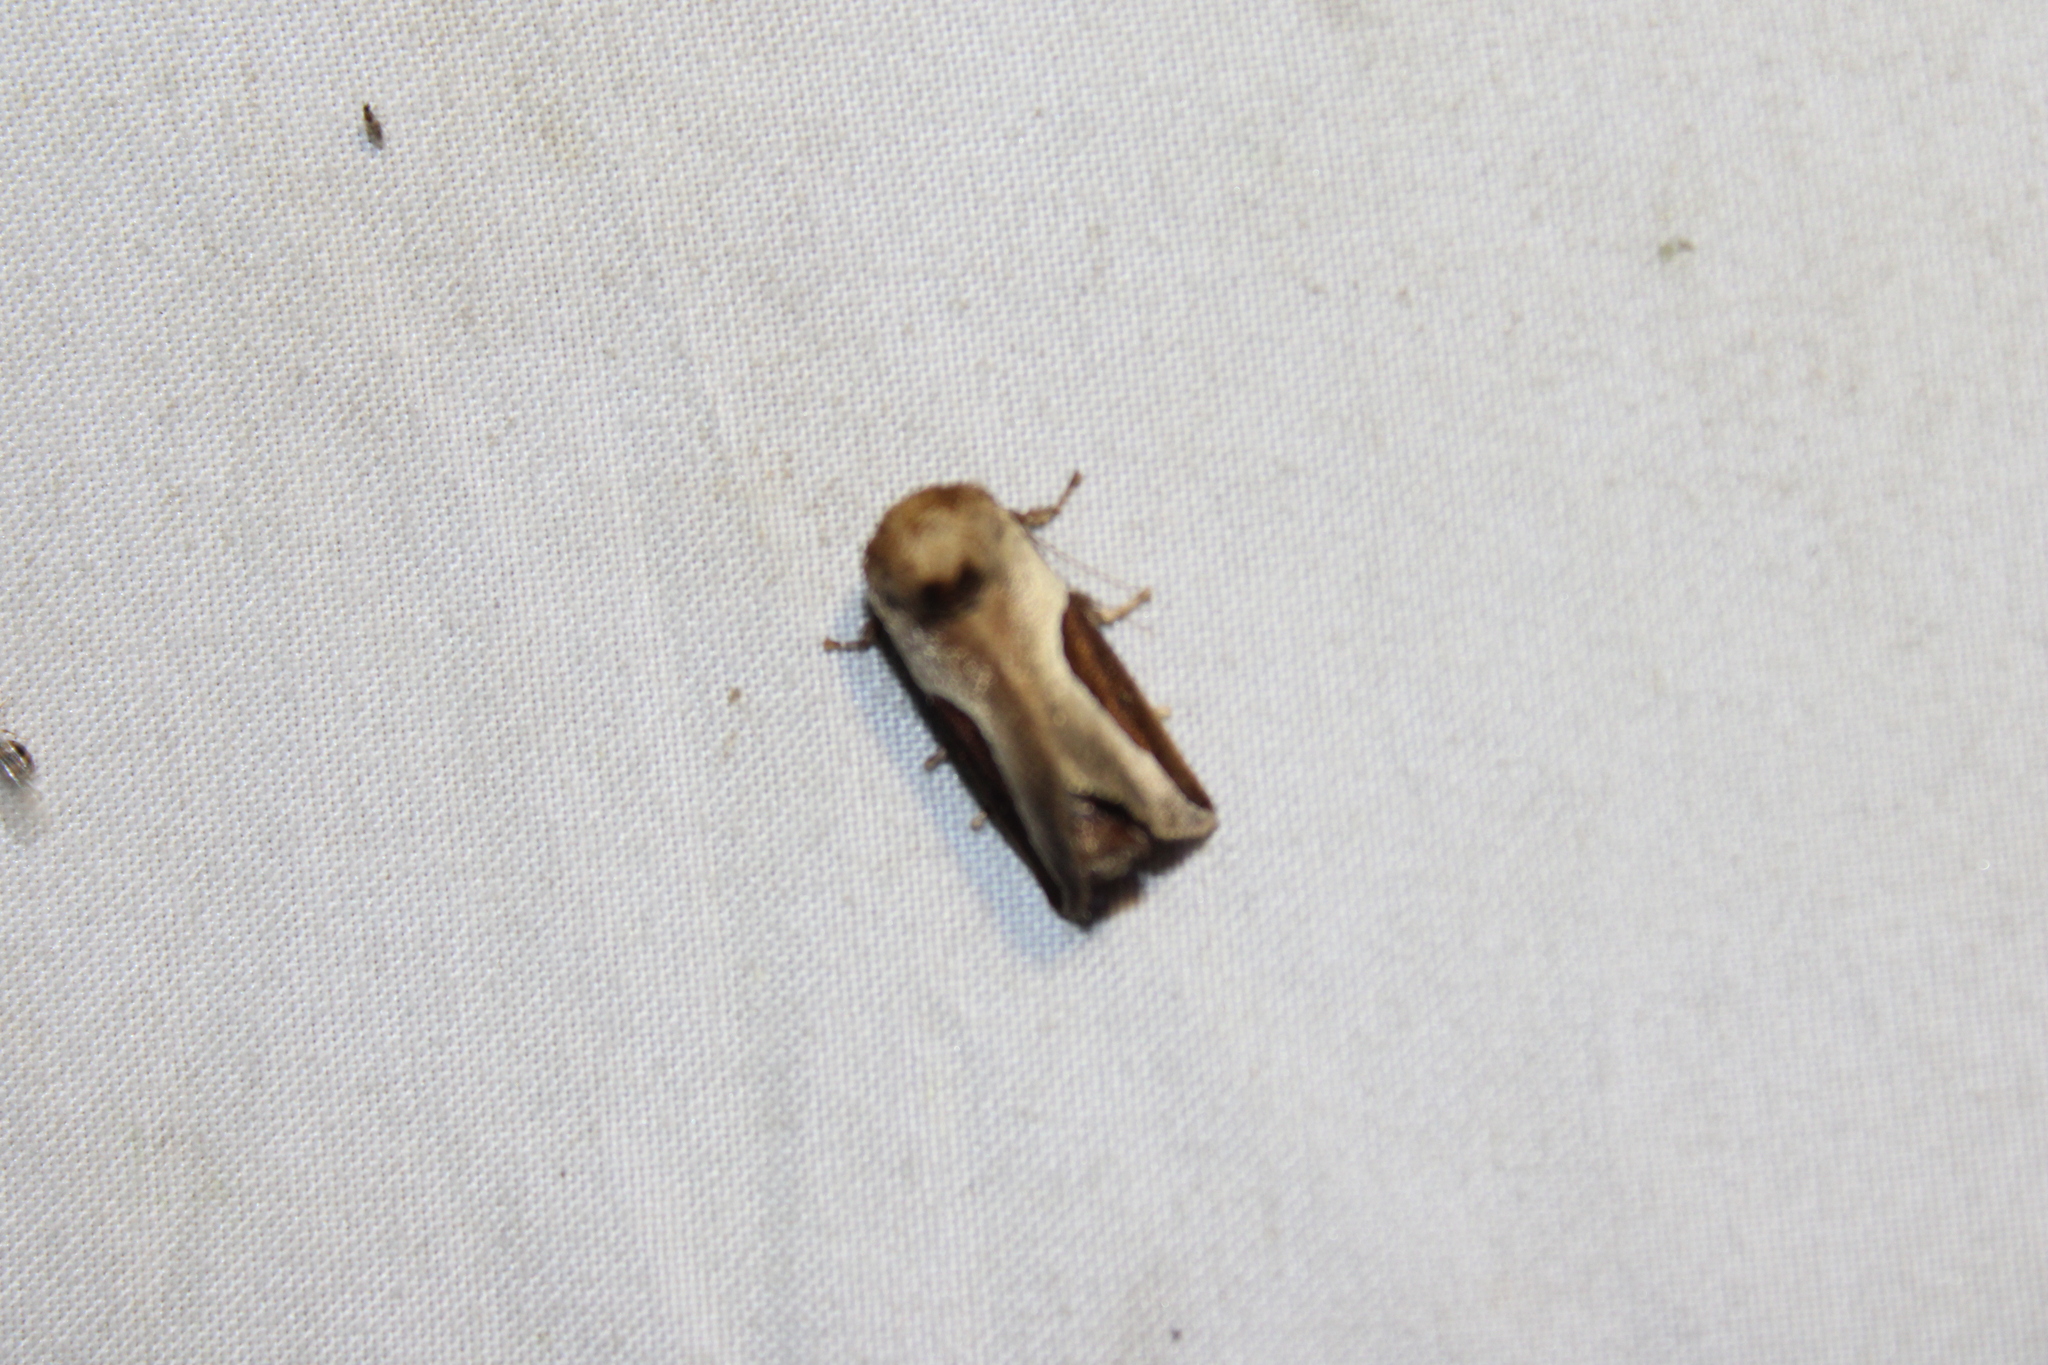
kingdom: Animalia
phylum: Arthropoda
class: Insecta
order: Lepidoptera
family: Limacodidae
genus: Prolimacodes
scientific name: Prolimacodes badia
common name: Skiff moth
